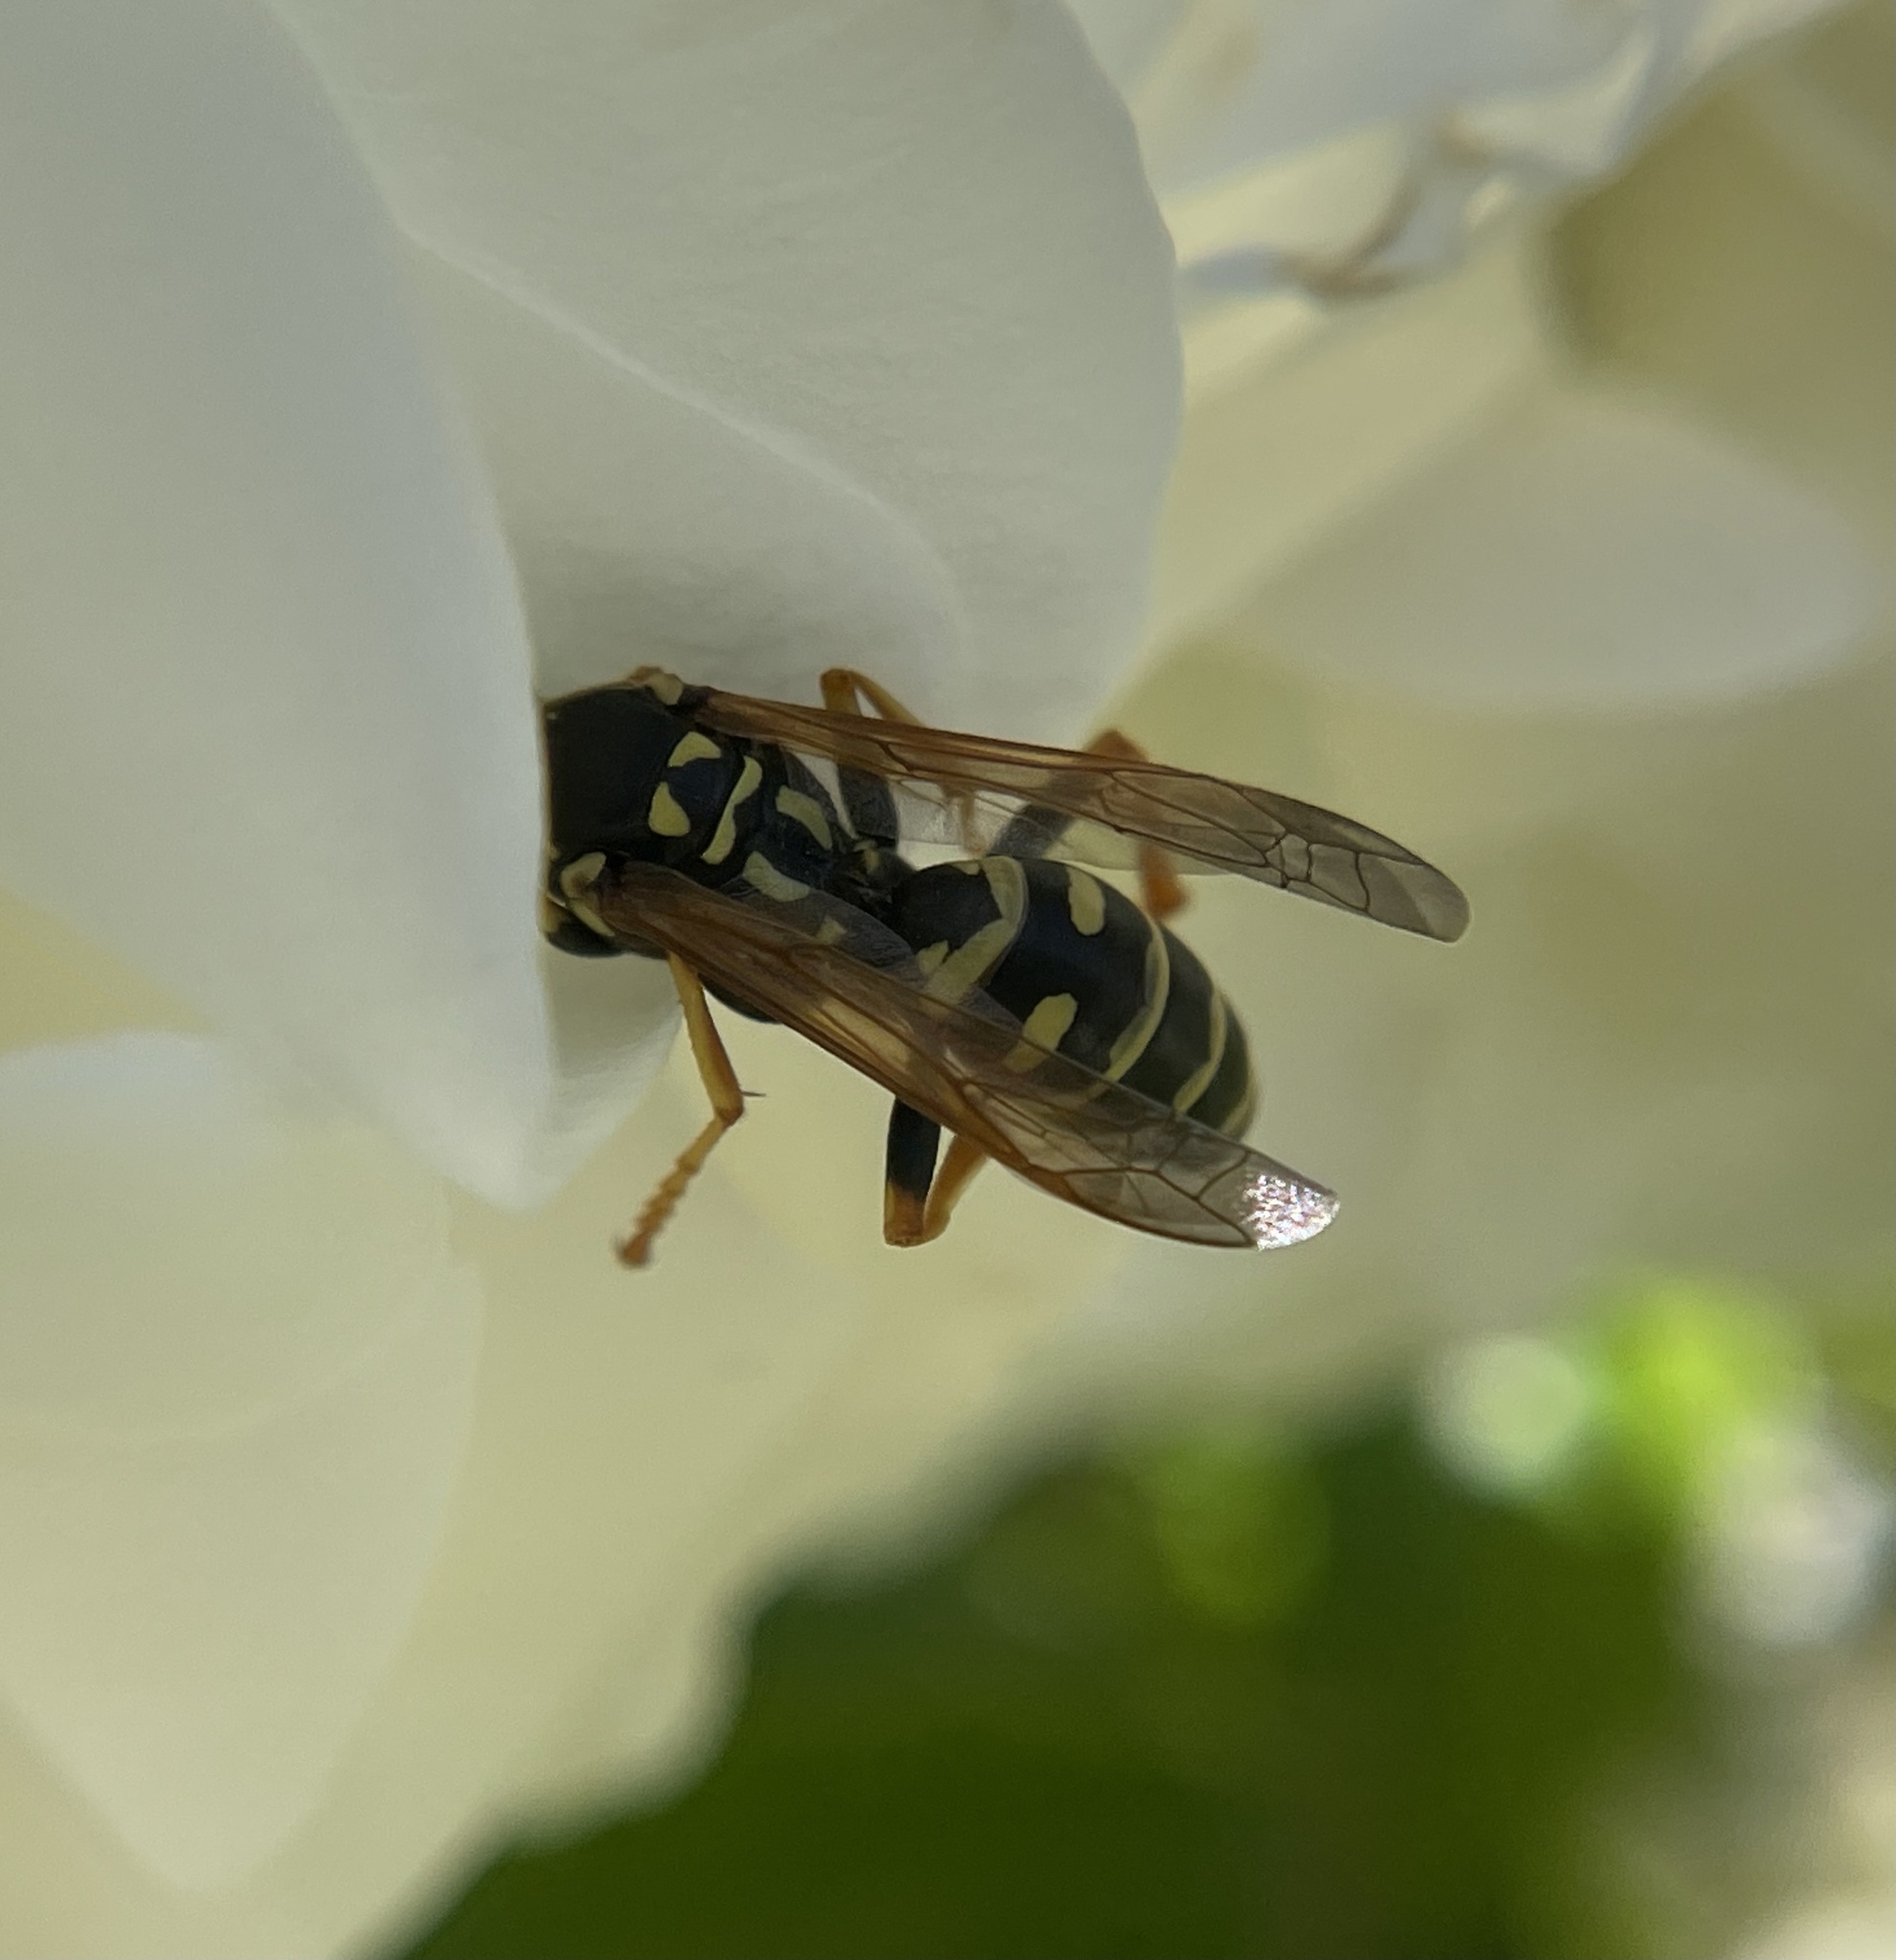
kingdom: Animalia
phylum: Arthropoda
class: Insecta
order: Hymenoptera
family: Eumenidae
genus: Polistes
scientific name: Polistes dominula
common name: Paper wasp
